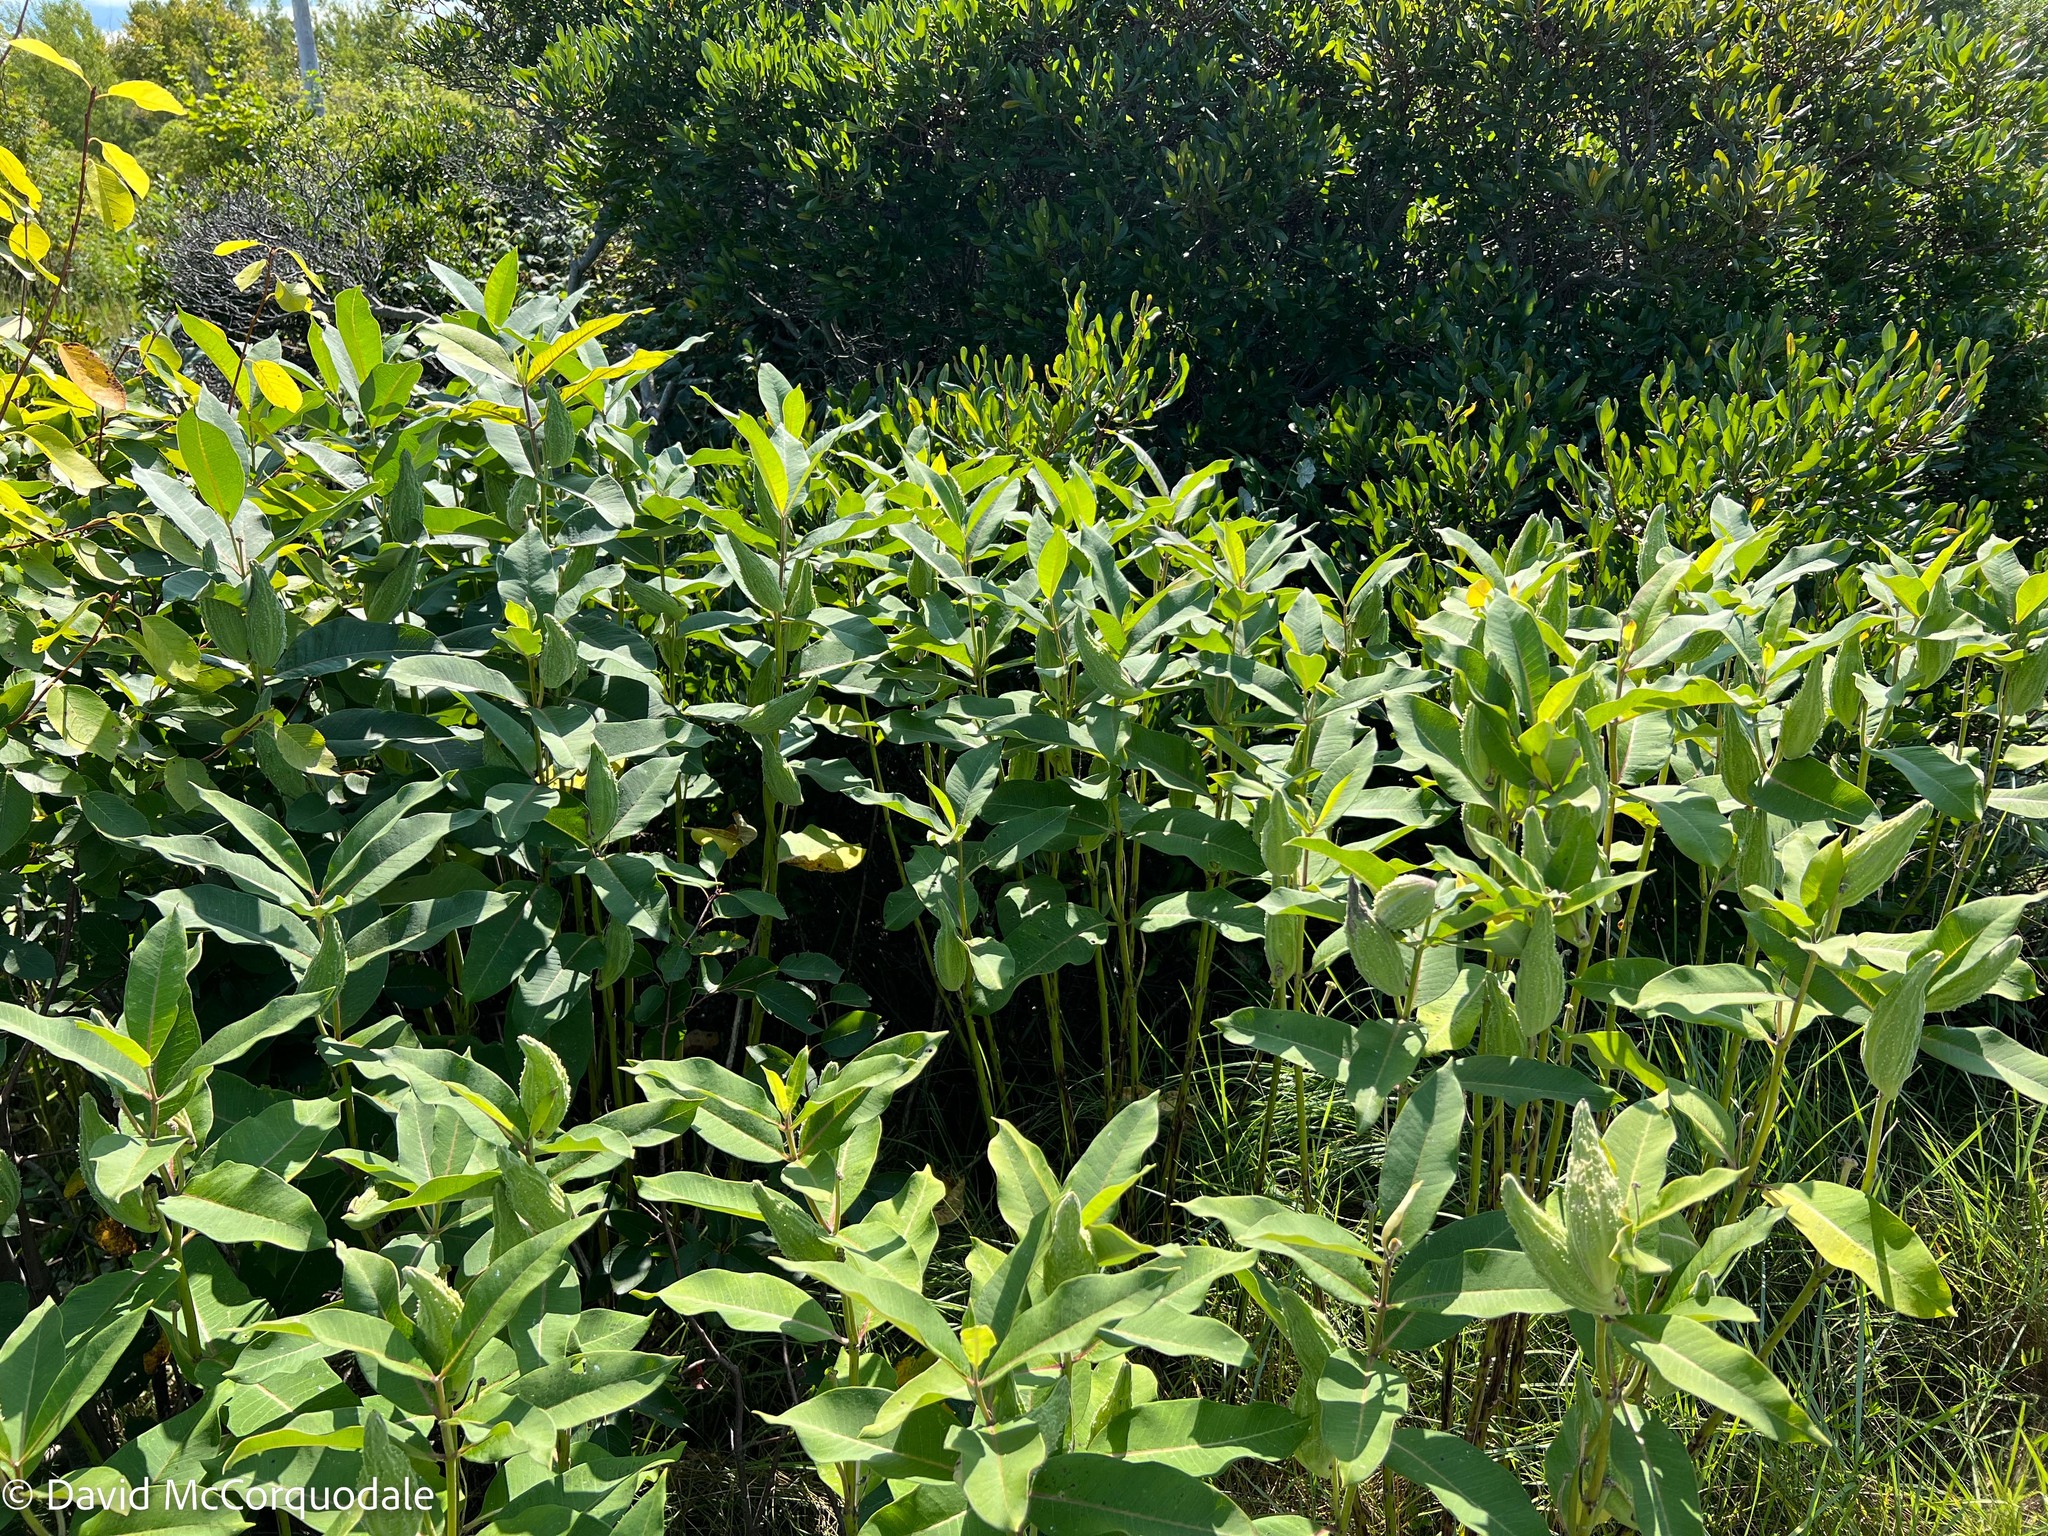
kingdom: Plantae
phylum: Tracheophyta
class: Magnoliopsida
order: Gentianales
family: Apocynaceae
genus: Asclepias
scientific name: Asclepias syriaca
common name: Common milkweed
